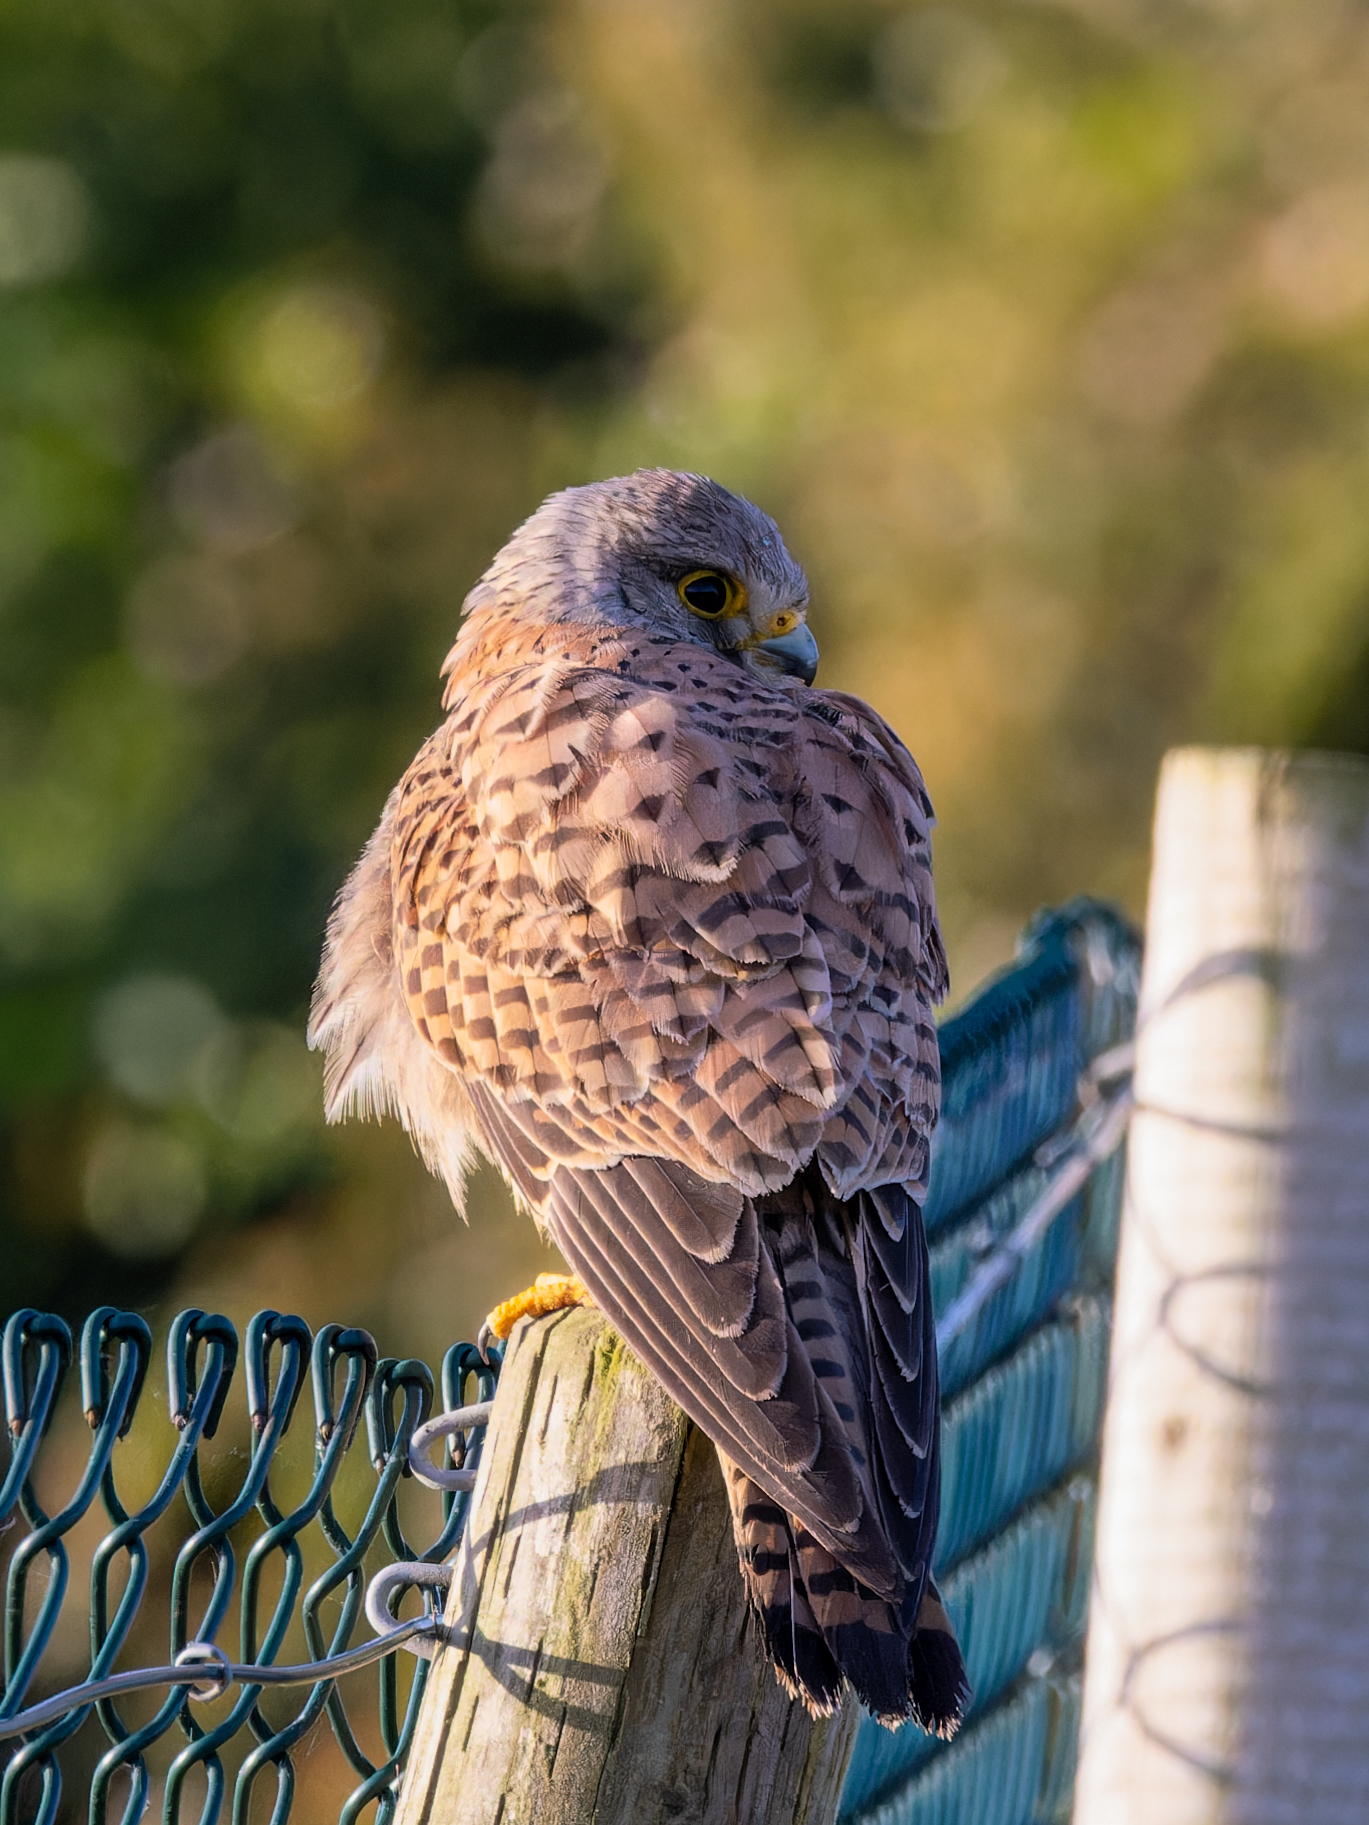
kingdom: Animalia
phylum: Chordata
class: Aves
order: Falconiformes
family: Falconidae
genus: Falco
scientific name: Falco tinnunculus
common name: Common kestrel
